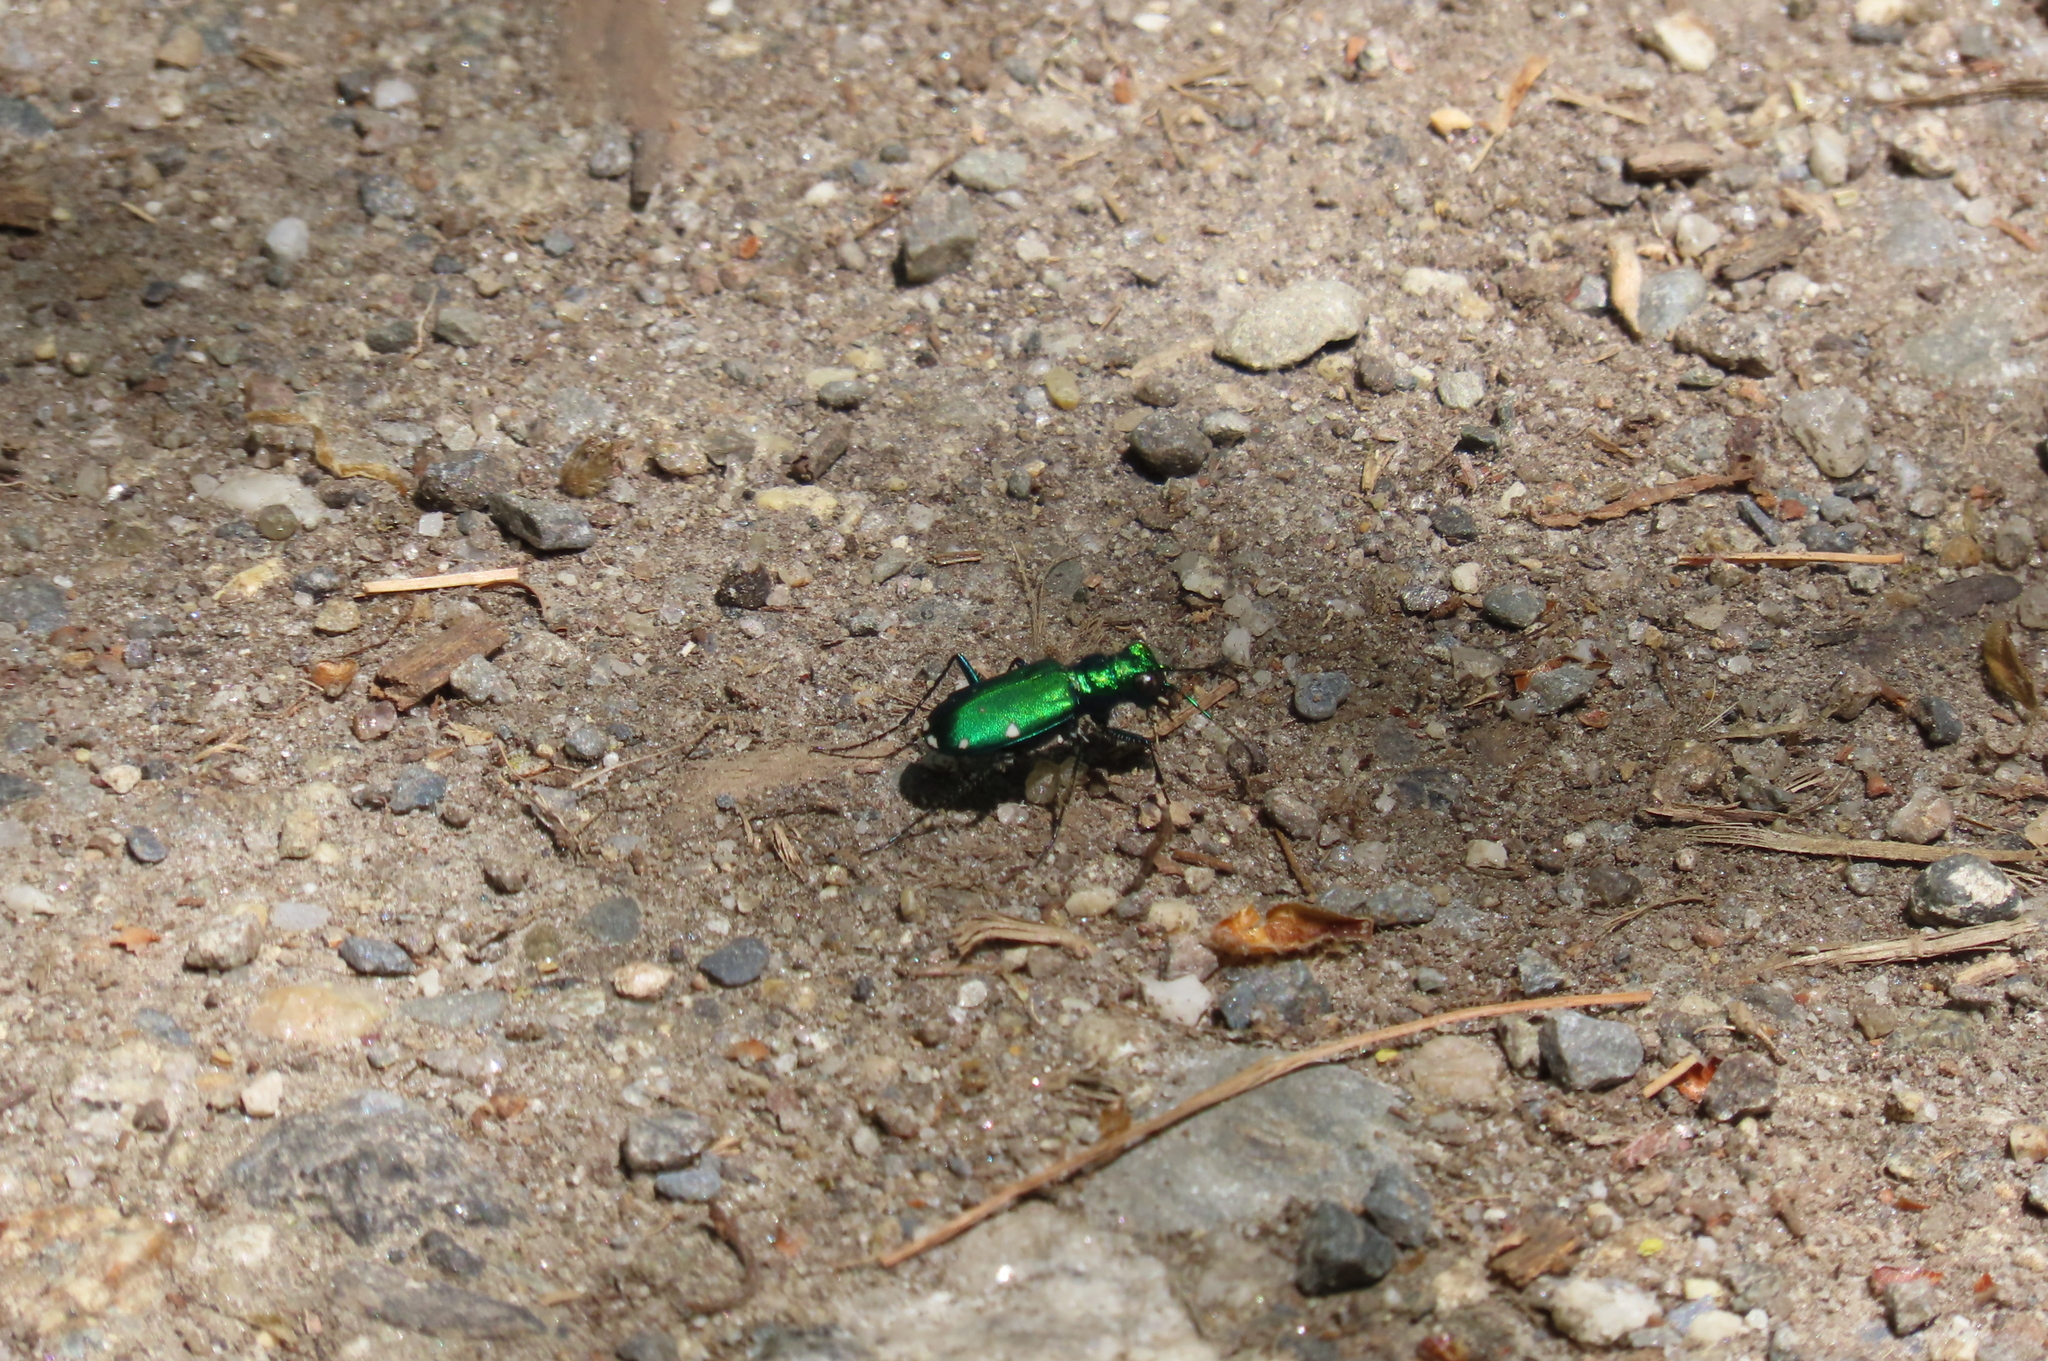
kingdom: Animalia
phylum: Arthropoda
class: Insecta
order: Coleoptera
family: Carabidae
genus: Cicindela
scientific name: Cicindela sexguttata
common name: Six-spotted tiger beetle
